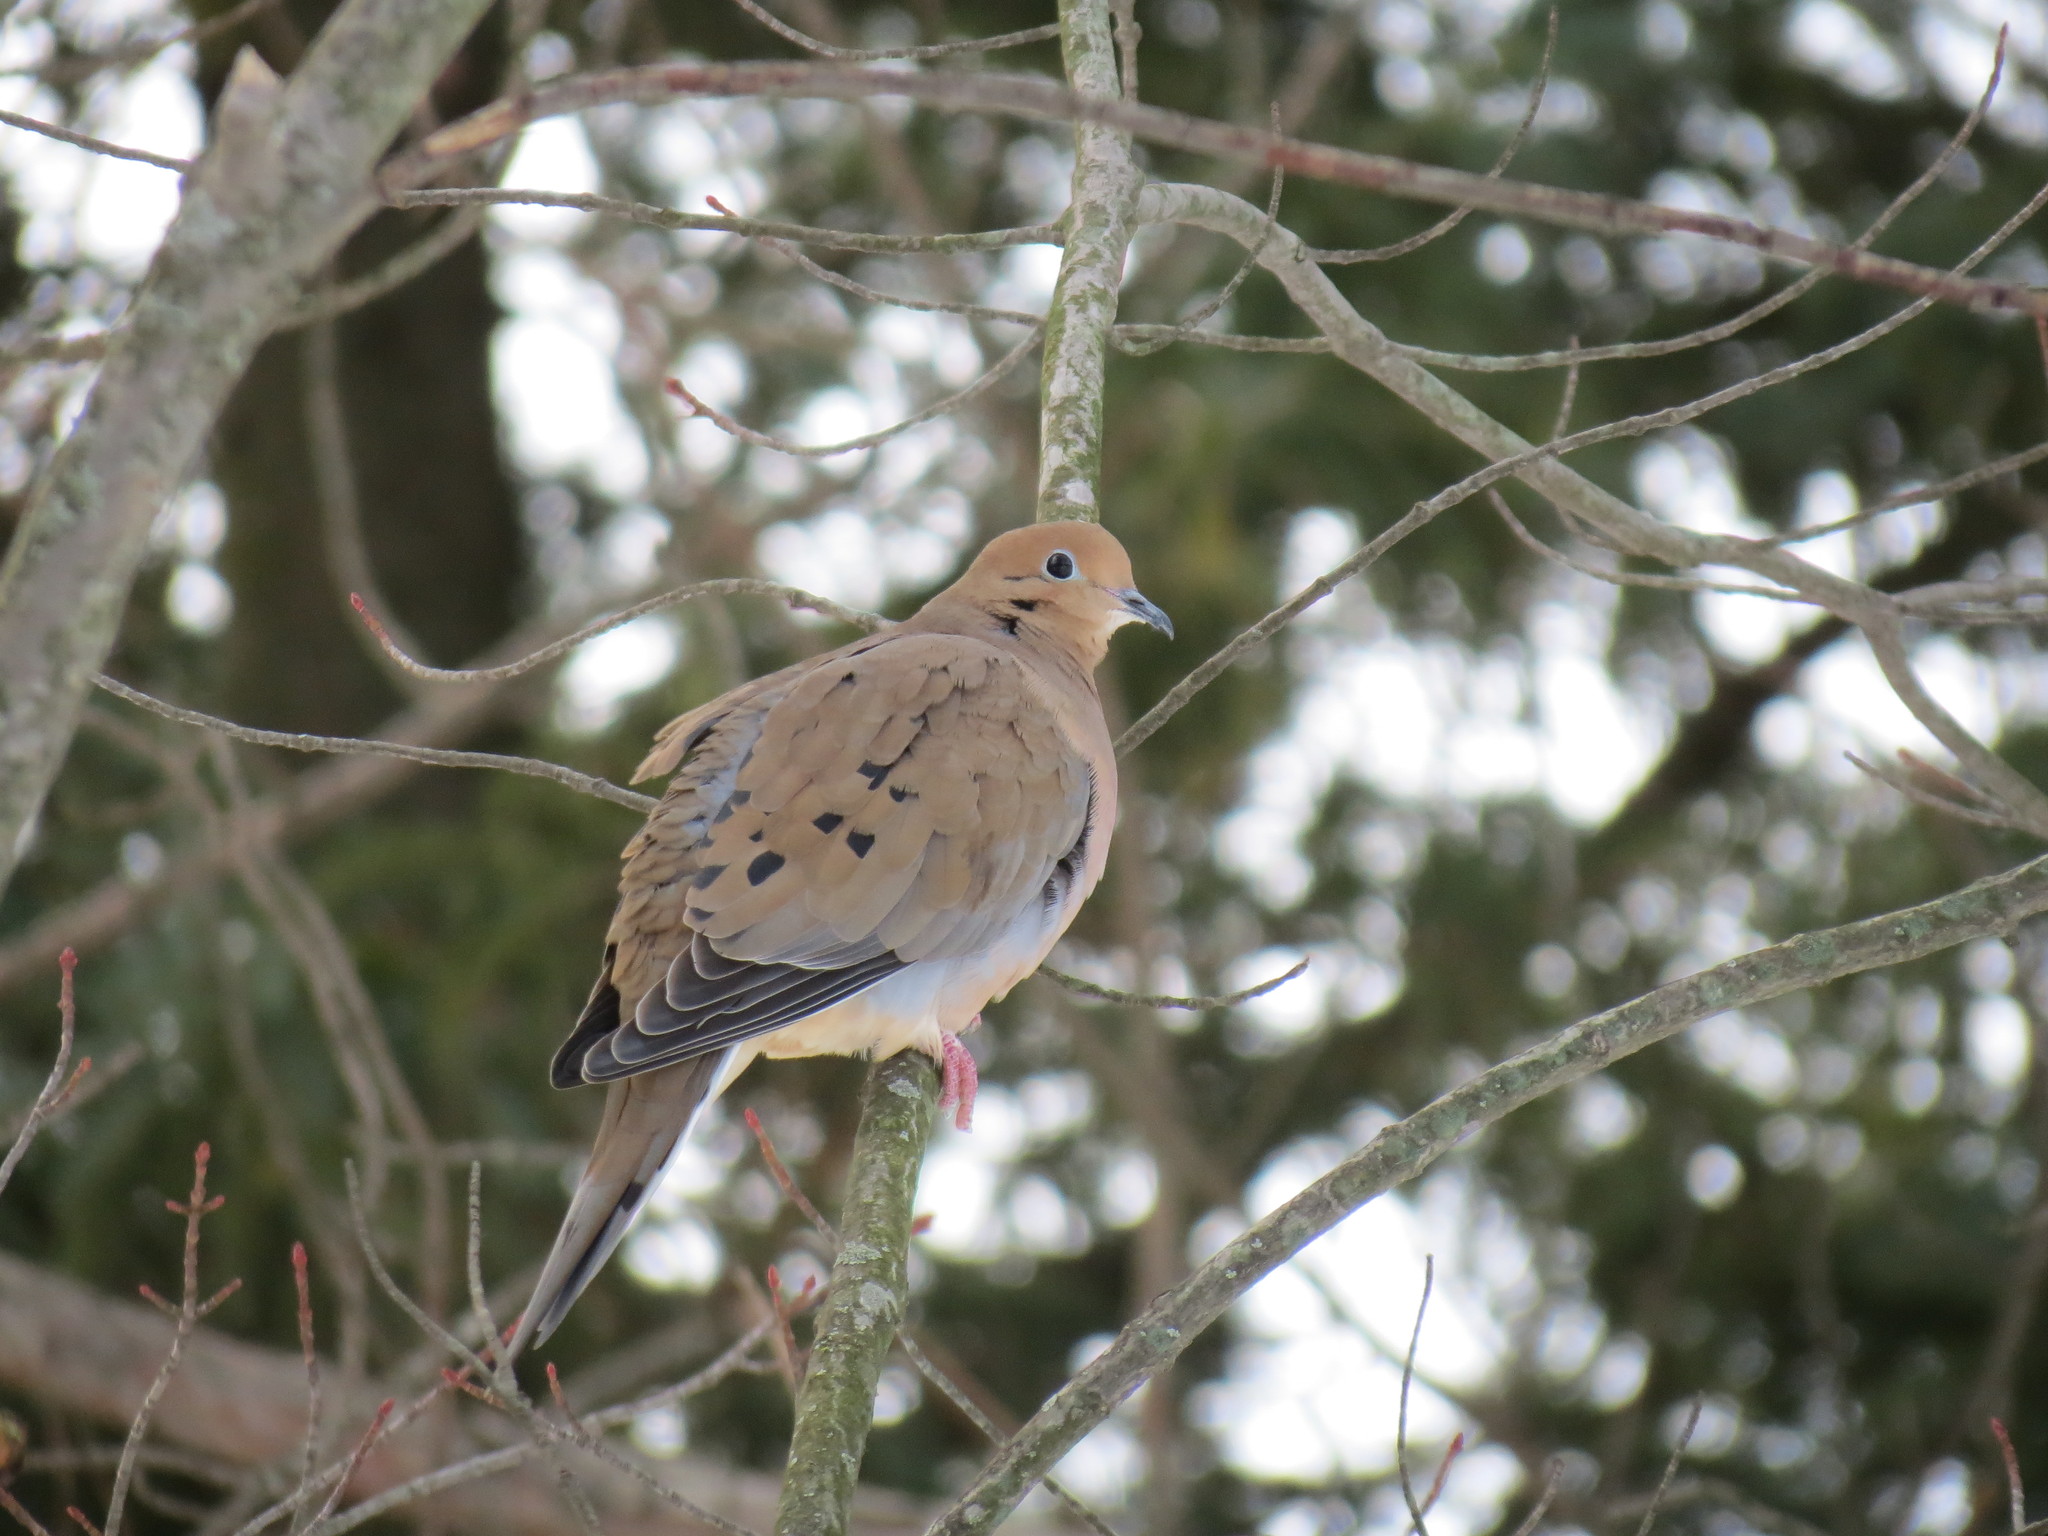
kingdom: Animalia
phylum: Chordata
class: Aves
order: Columbiformes
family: Columbidae
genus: Zenaida
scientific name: Zenaida macroura
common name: Mourning dove
